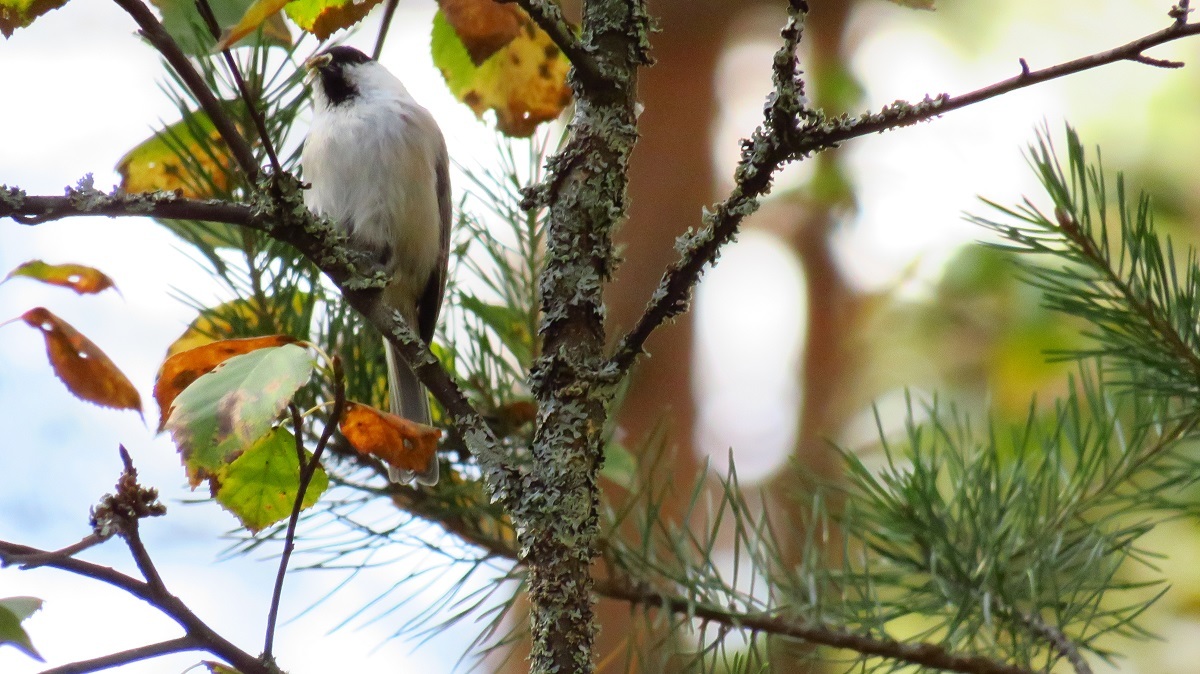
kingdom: Animalia
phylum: Chordata
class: Aves
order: Passeriformes
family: Paridae
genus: Poecile
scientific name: Poecile montanus
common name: Willow tit
